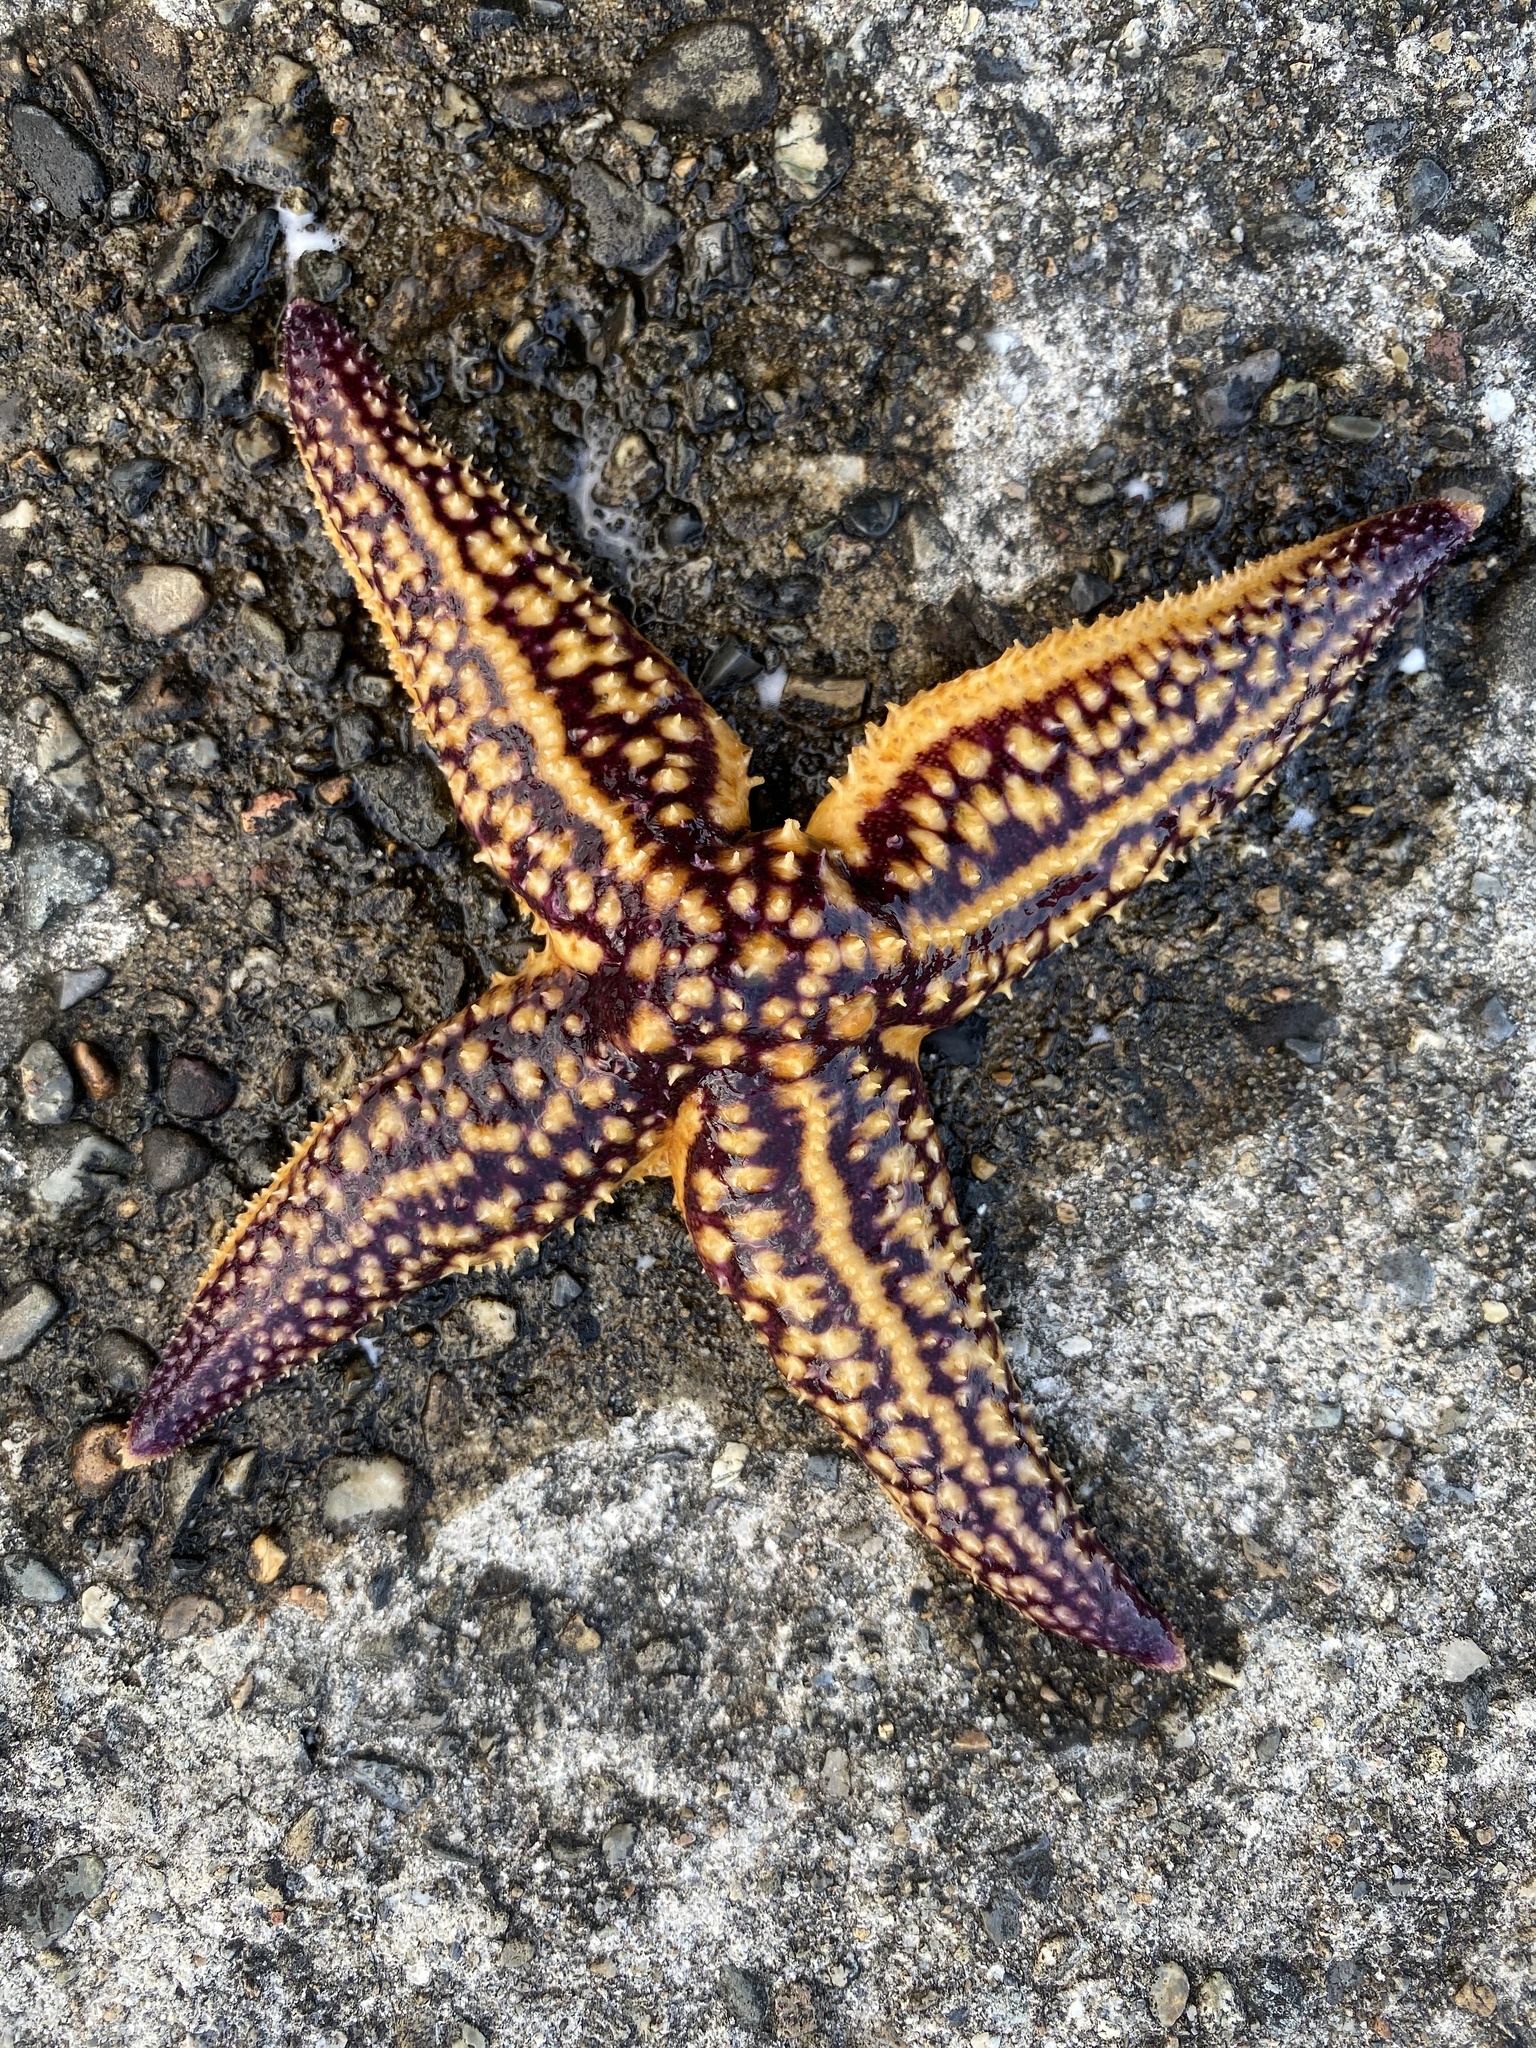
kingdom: Animalia
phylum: Echinodermata
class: Asteroidea
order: Forcipulatida
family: Asteriidae
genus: Asterias
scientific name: Asterias amurensis
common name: Flat-bottomed star
